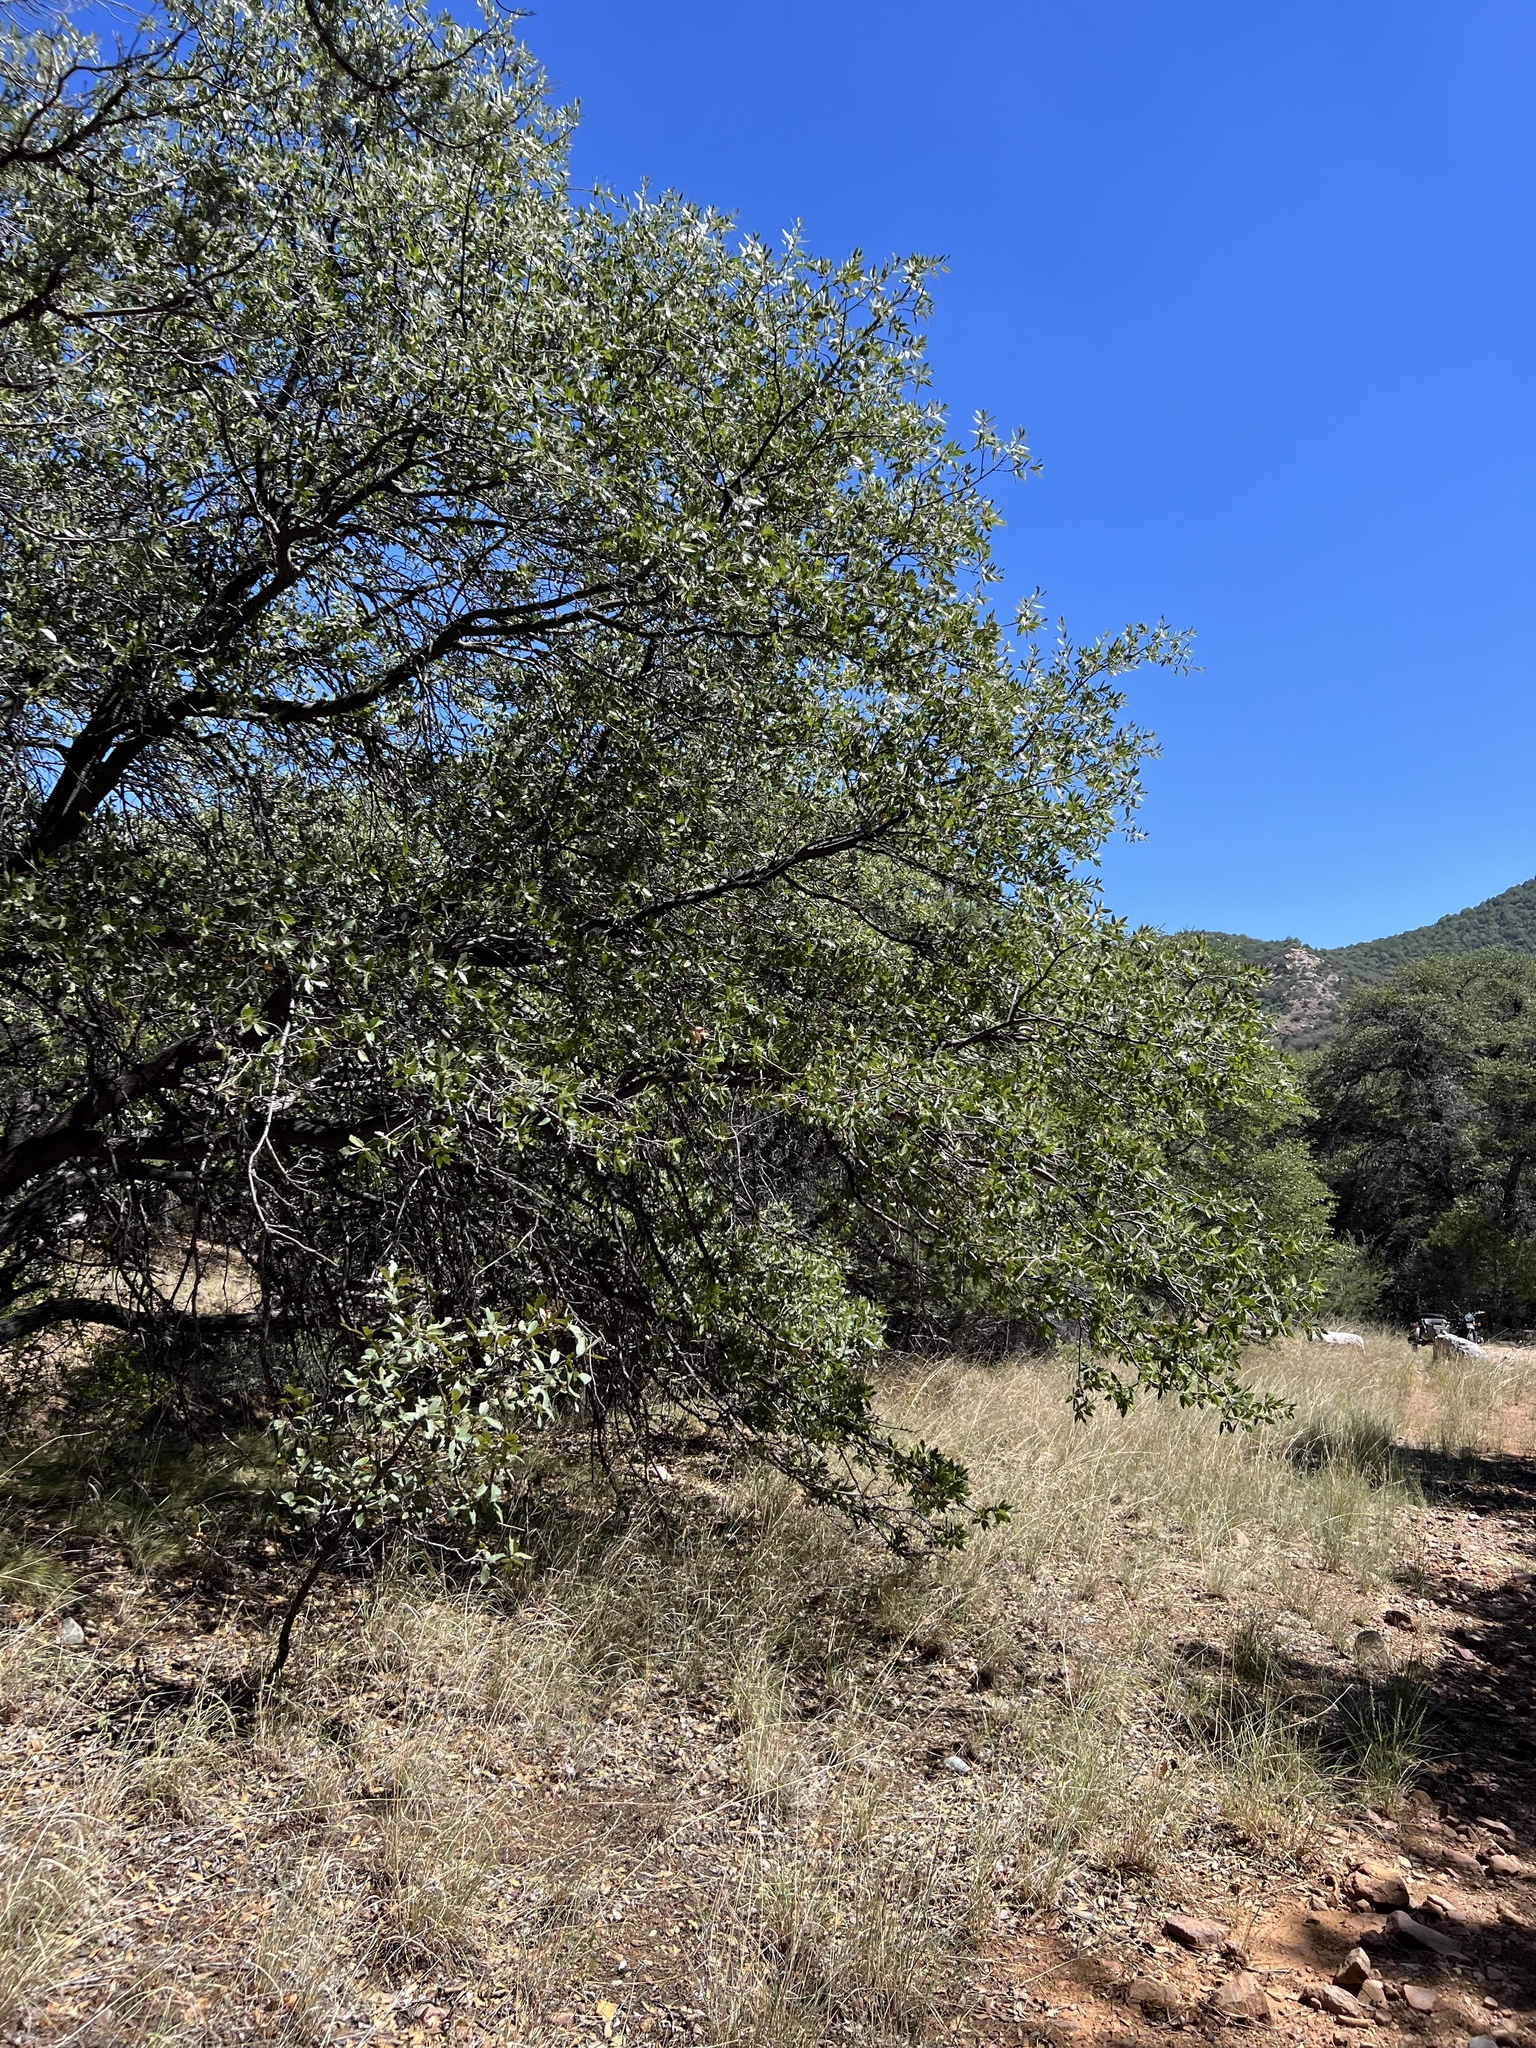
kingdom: Plantae
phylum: Tracheophyta
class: Magnoliopsida
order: Fagales
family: Fagaceae
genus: Quercus
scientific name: Quercus emoryi
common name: Emory oak
